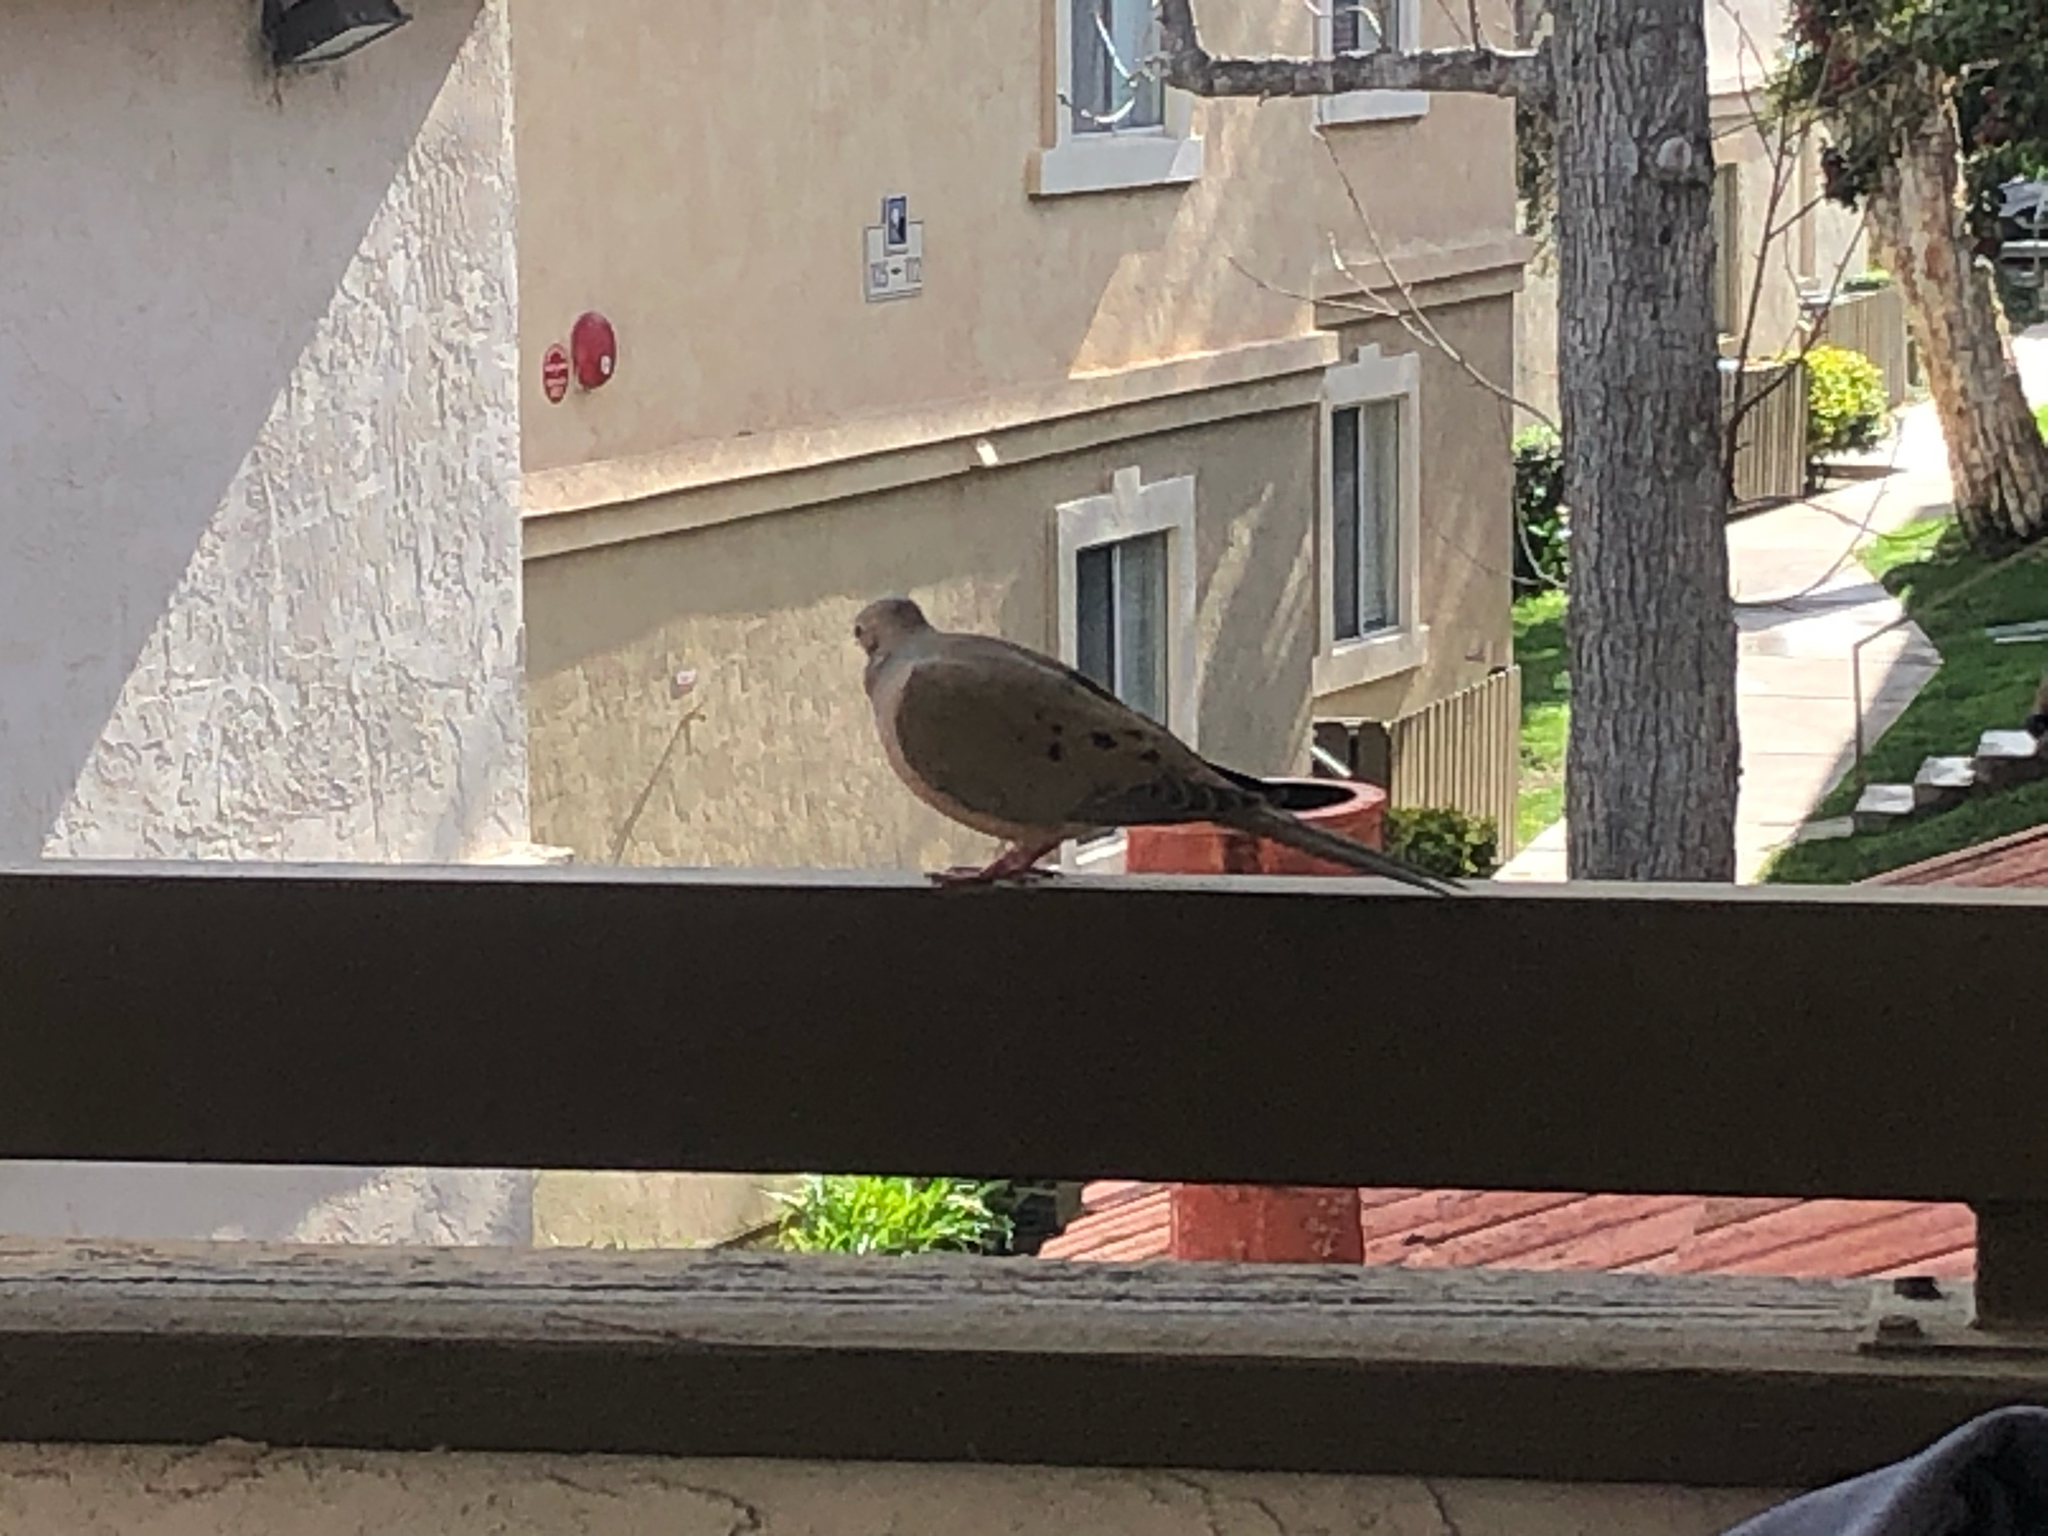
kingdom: Animalia
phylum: Chordata
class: Aves
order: Columbiformes
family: Columbidae
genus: Zenaida
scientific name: Zenaida macroura
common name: Mourning dove
